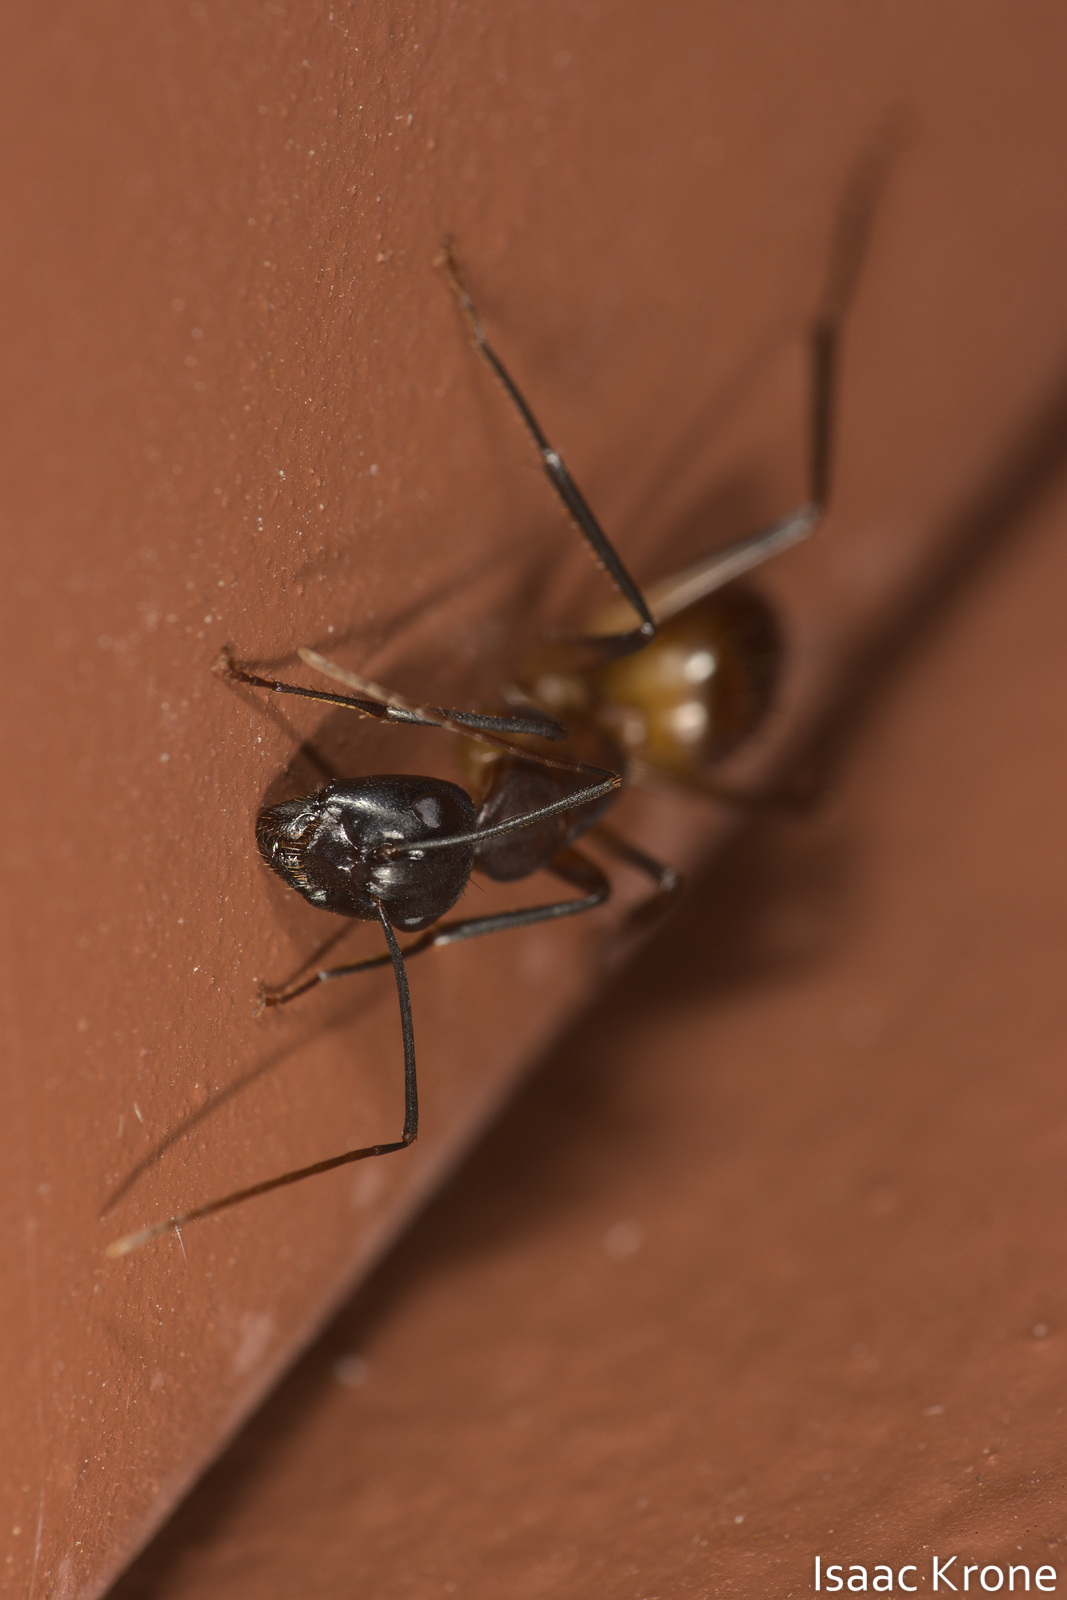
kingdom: Animalia
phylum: Arthropoda
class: Insecta
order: Hymenoptera
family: Formicidae
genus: Camponotus
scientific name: Camponotus ocreatus
